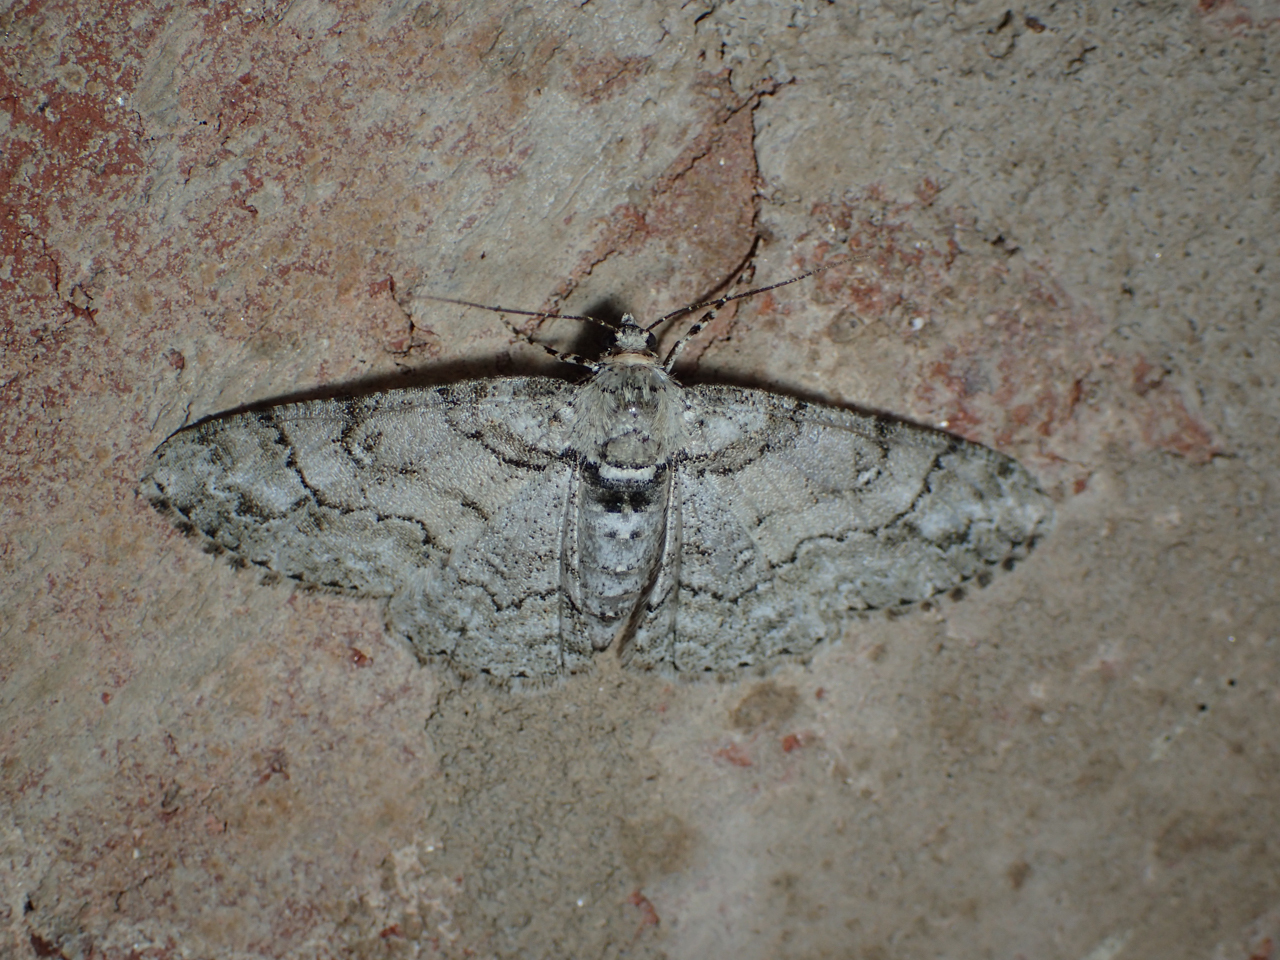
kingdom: Animalia
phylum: Arthropoda
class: Insecta
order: Lepidoptera
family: Geometridae
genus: Cleora
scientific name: Cleora sublunaria
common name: Double-lined gray
